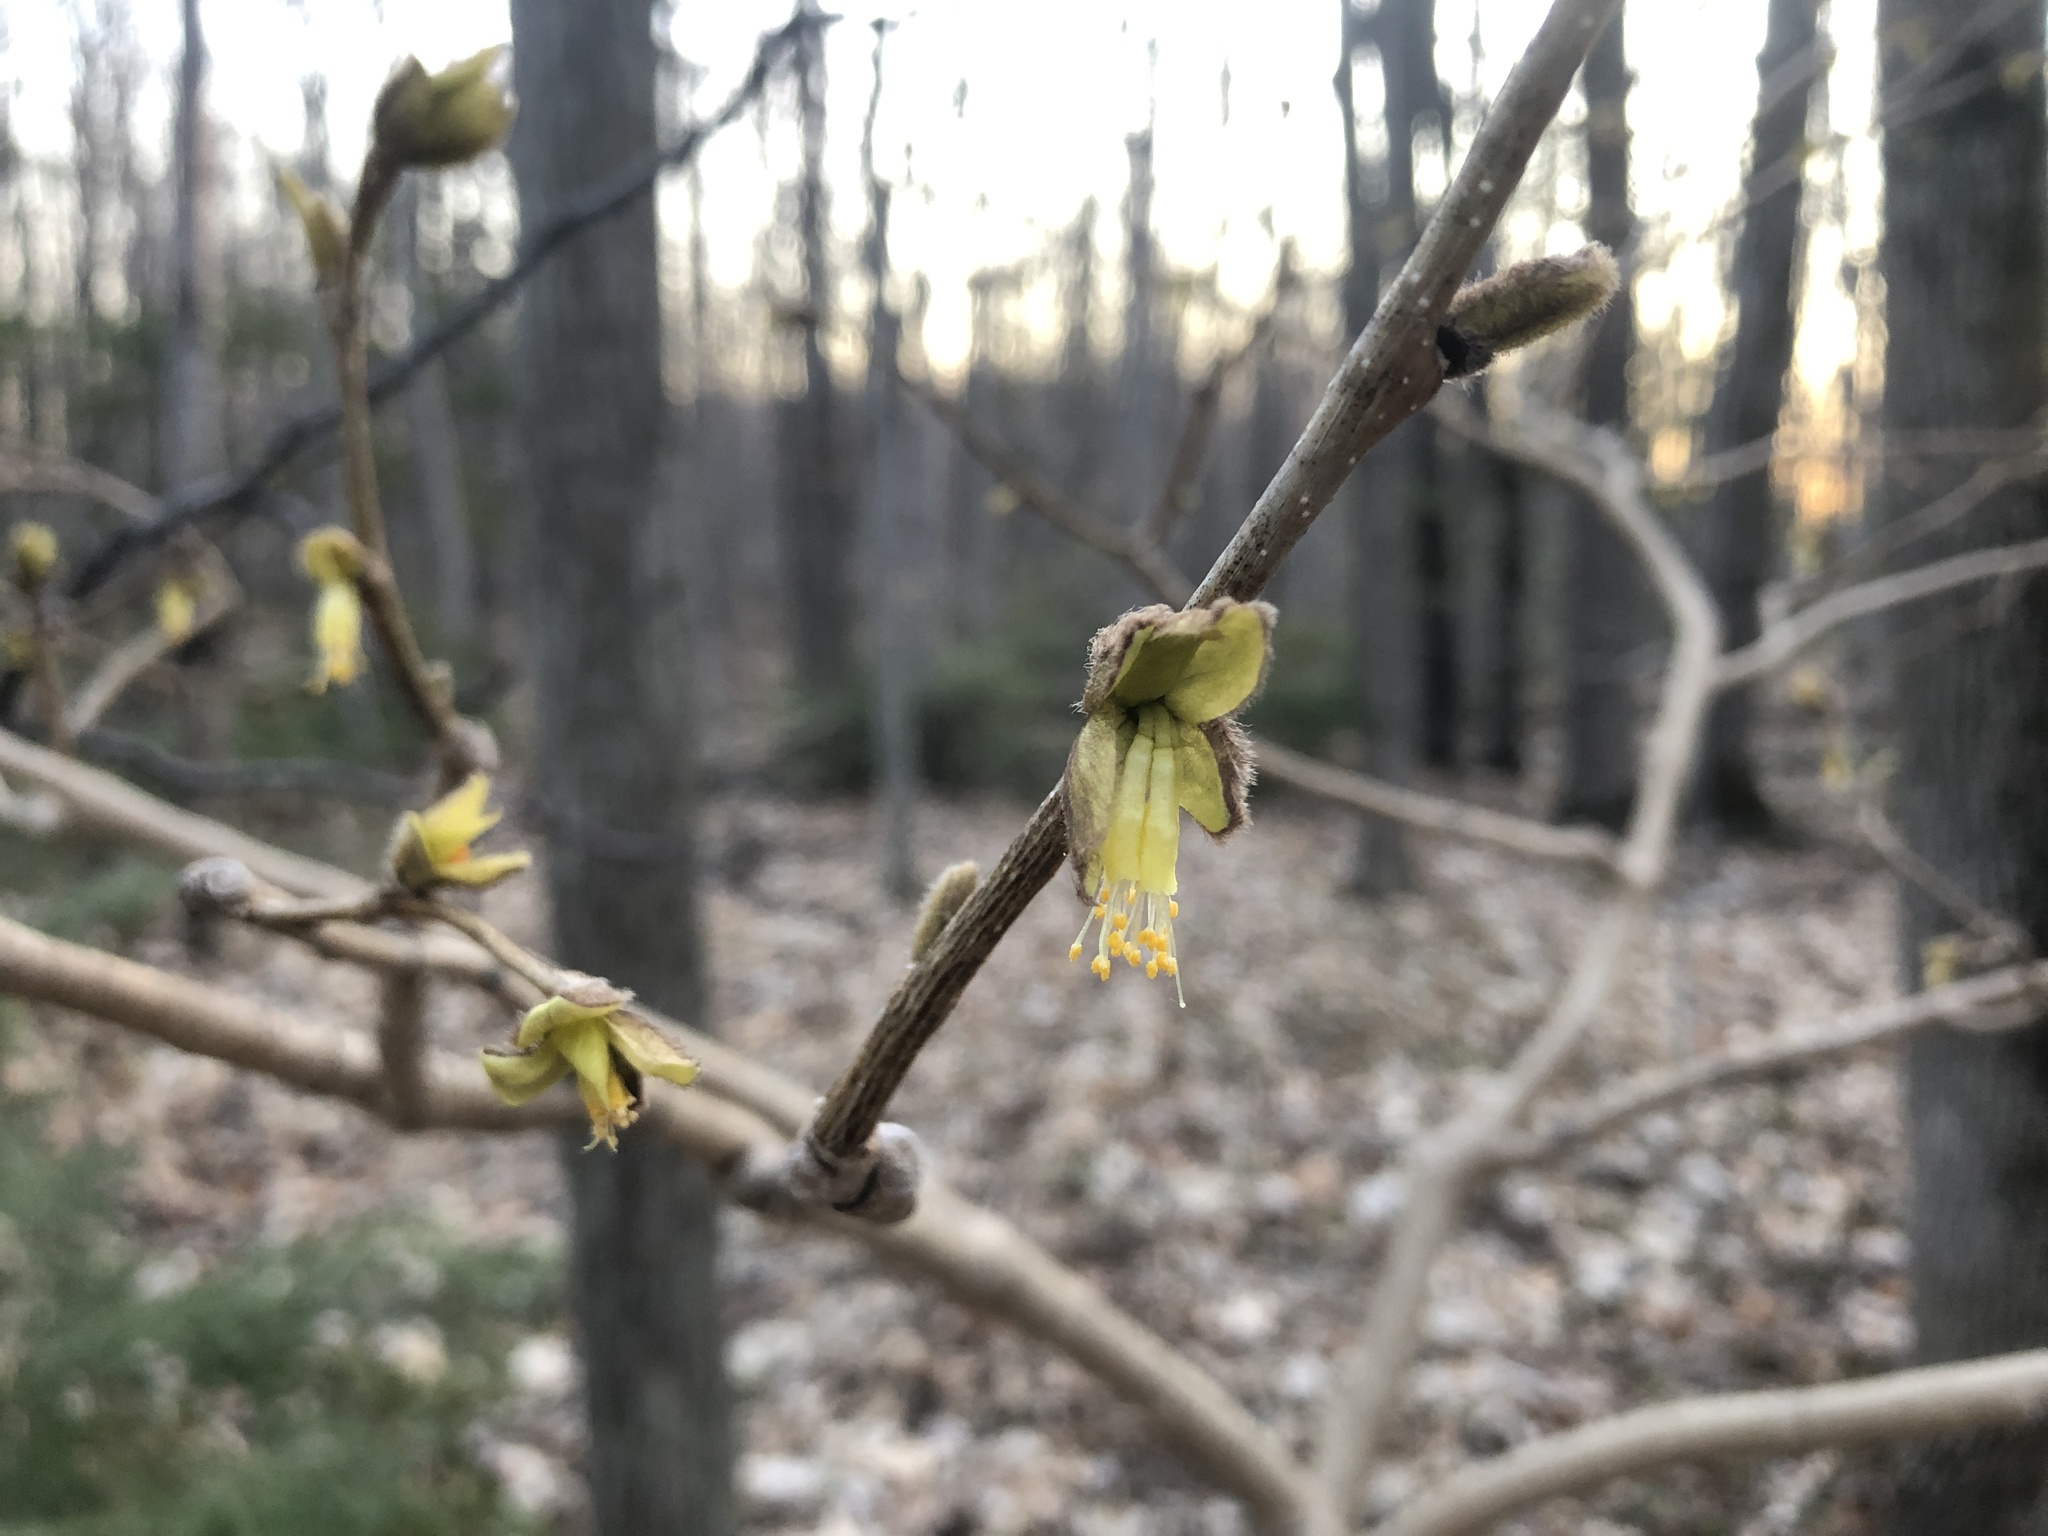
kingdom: Plantae
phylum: Tracheophyta
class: Magnoliopsida
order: Malvales
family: Thymelaeaceae
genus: Dirca
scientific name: Dirca palustris
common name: Leatherwood
